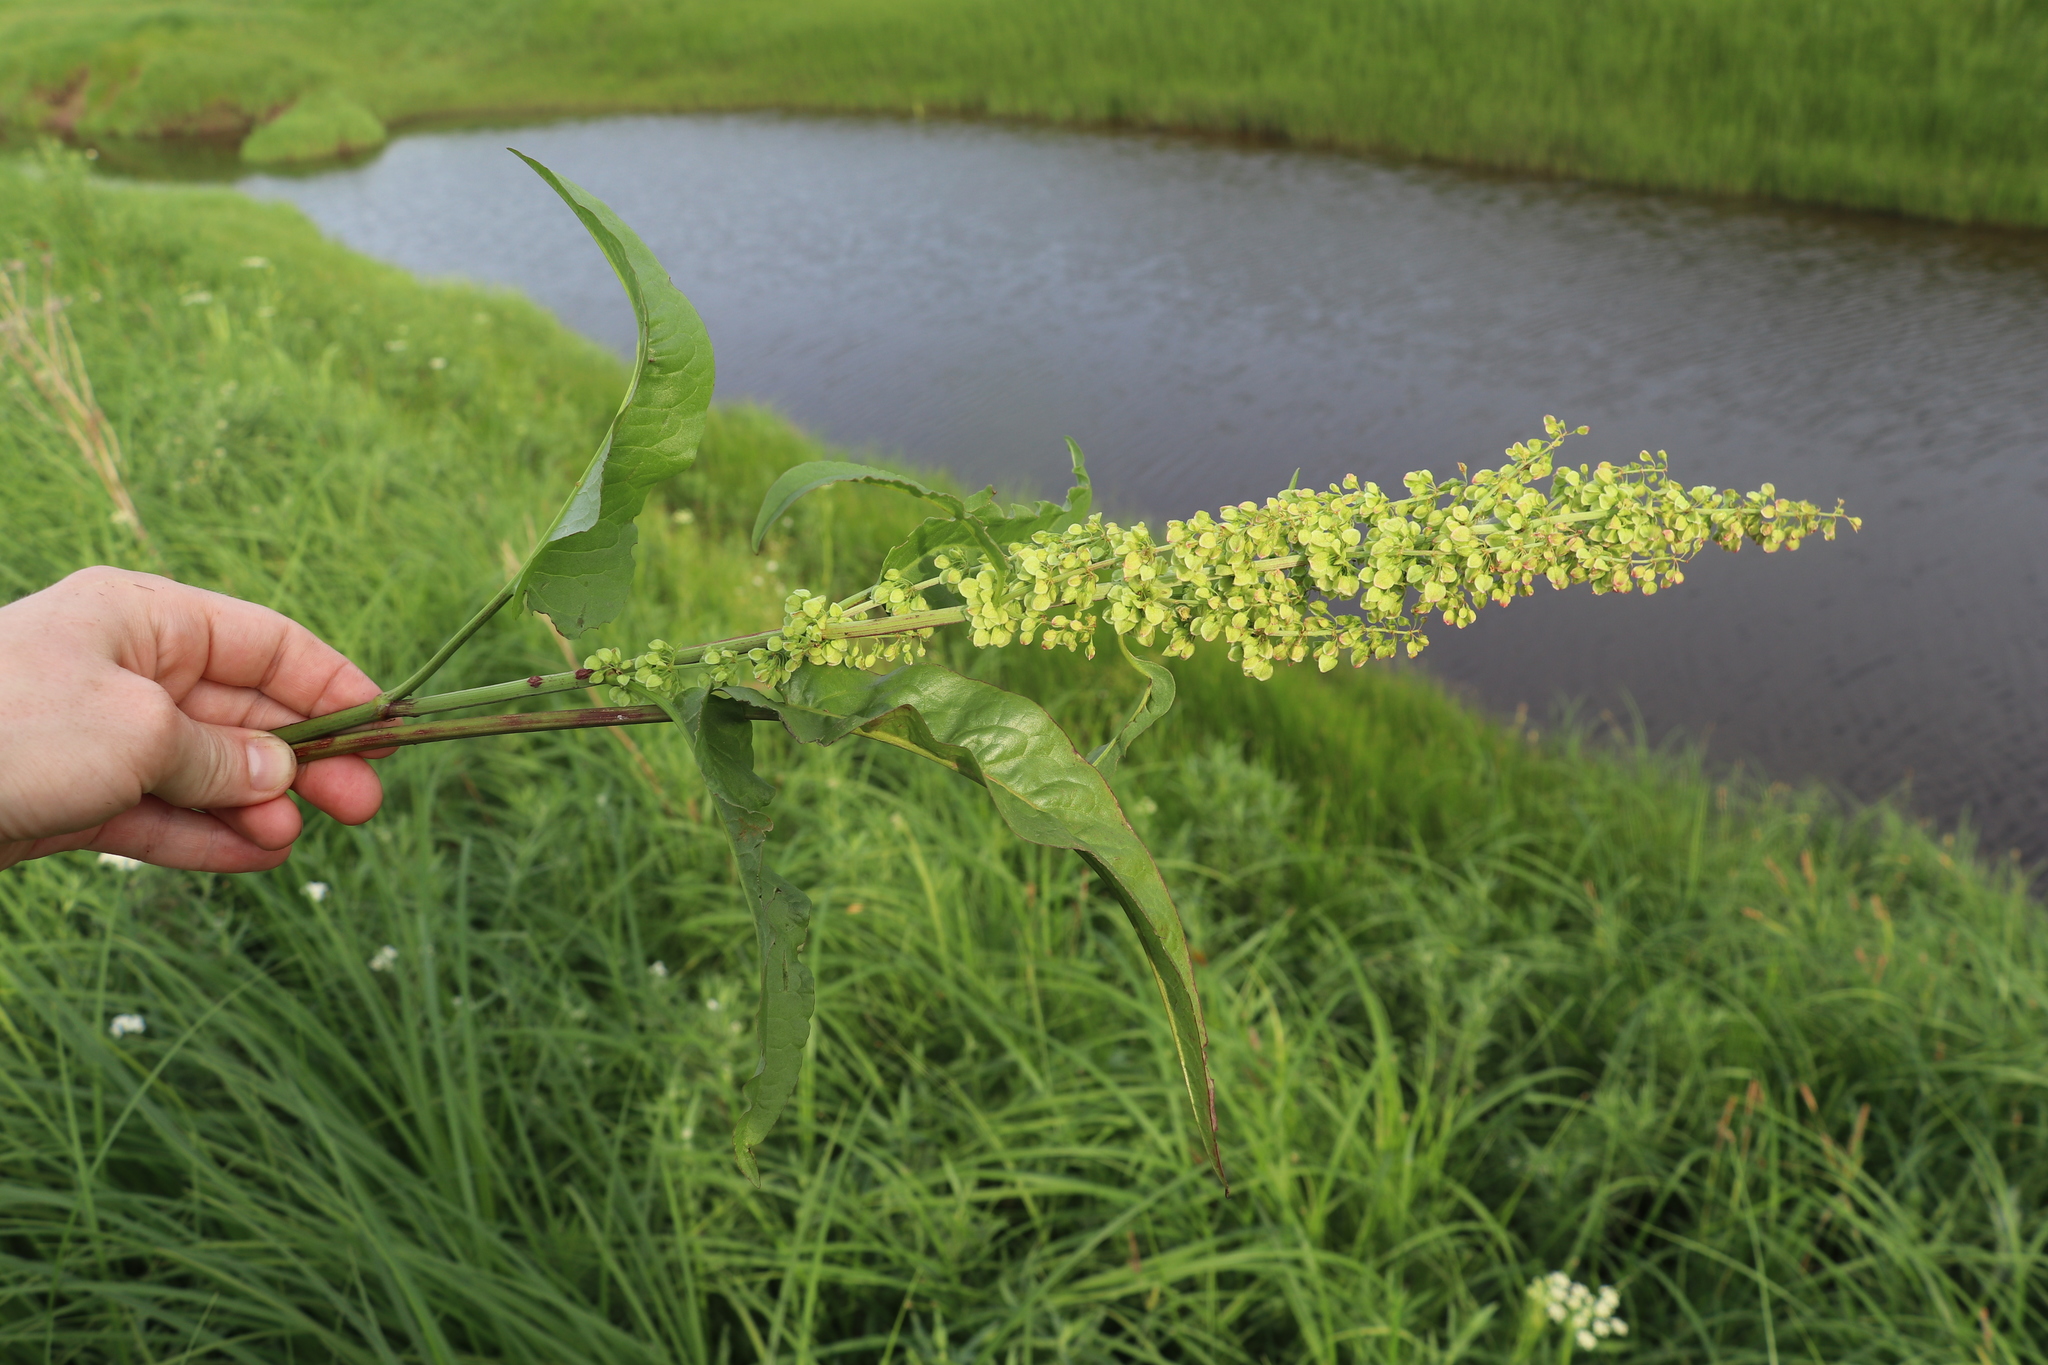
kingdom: Plantae
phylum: Tracheophyta
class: Magnoliopsida
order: Caryophyllales
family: Polygonaceae
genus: Rumex
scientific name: Rumex aquaticus
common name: Scottish dock
